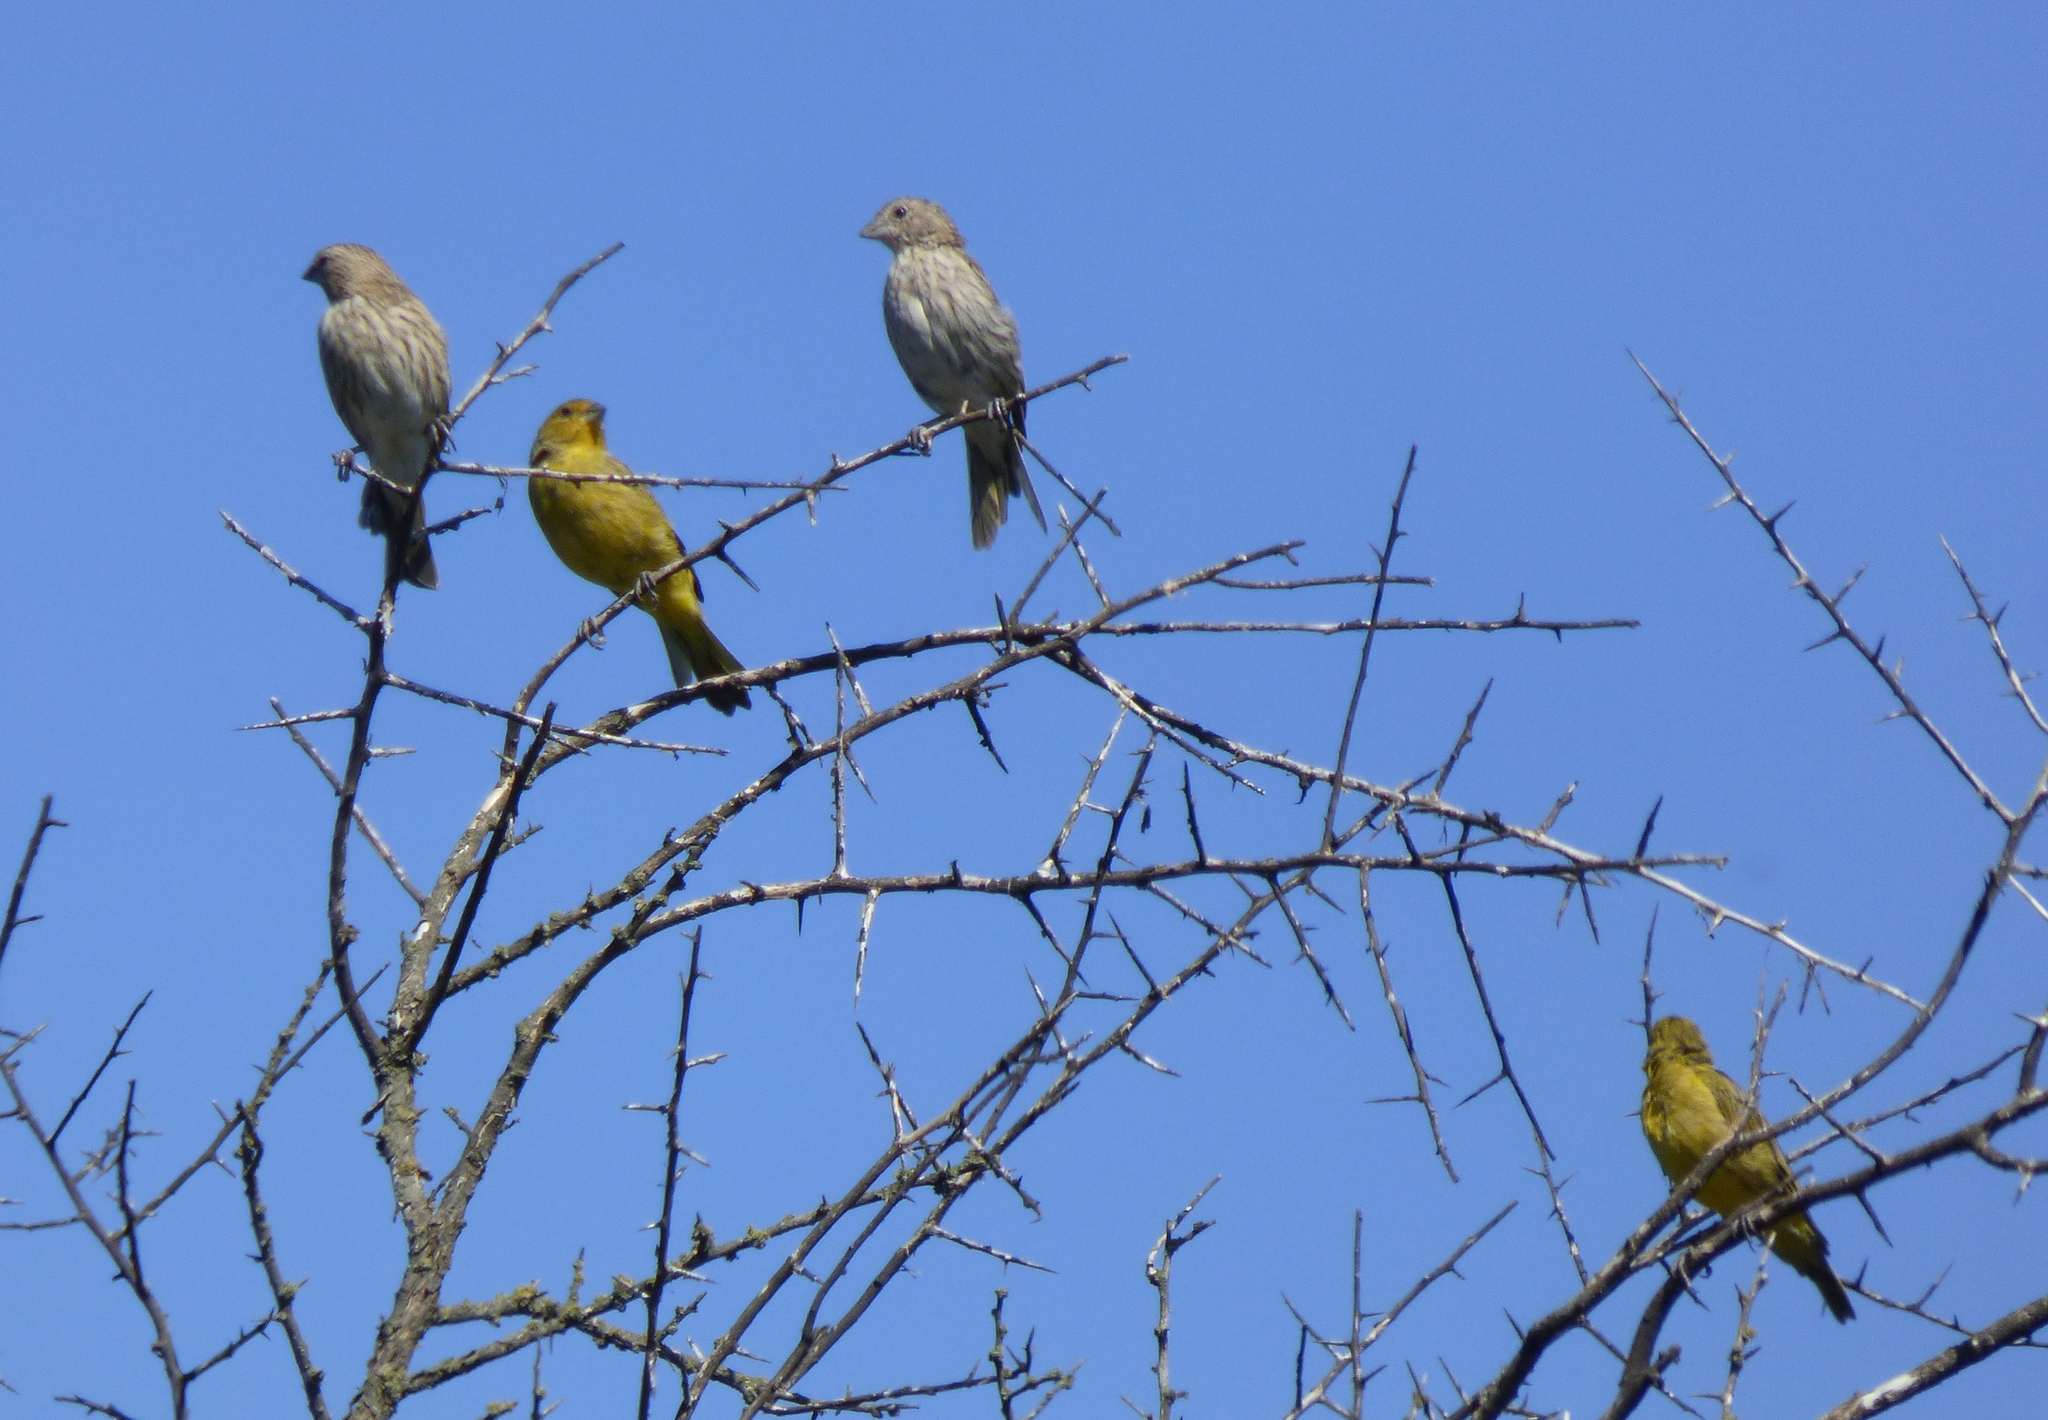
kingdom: Animalia
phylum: Chordata
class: Aves
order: Passeriformes
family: Thraupidae
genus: Sicalis
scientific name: Sicalis flaveola
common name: Saffron finch
